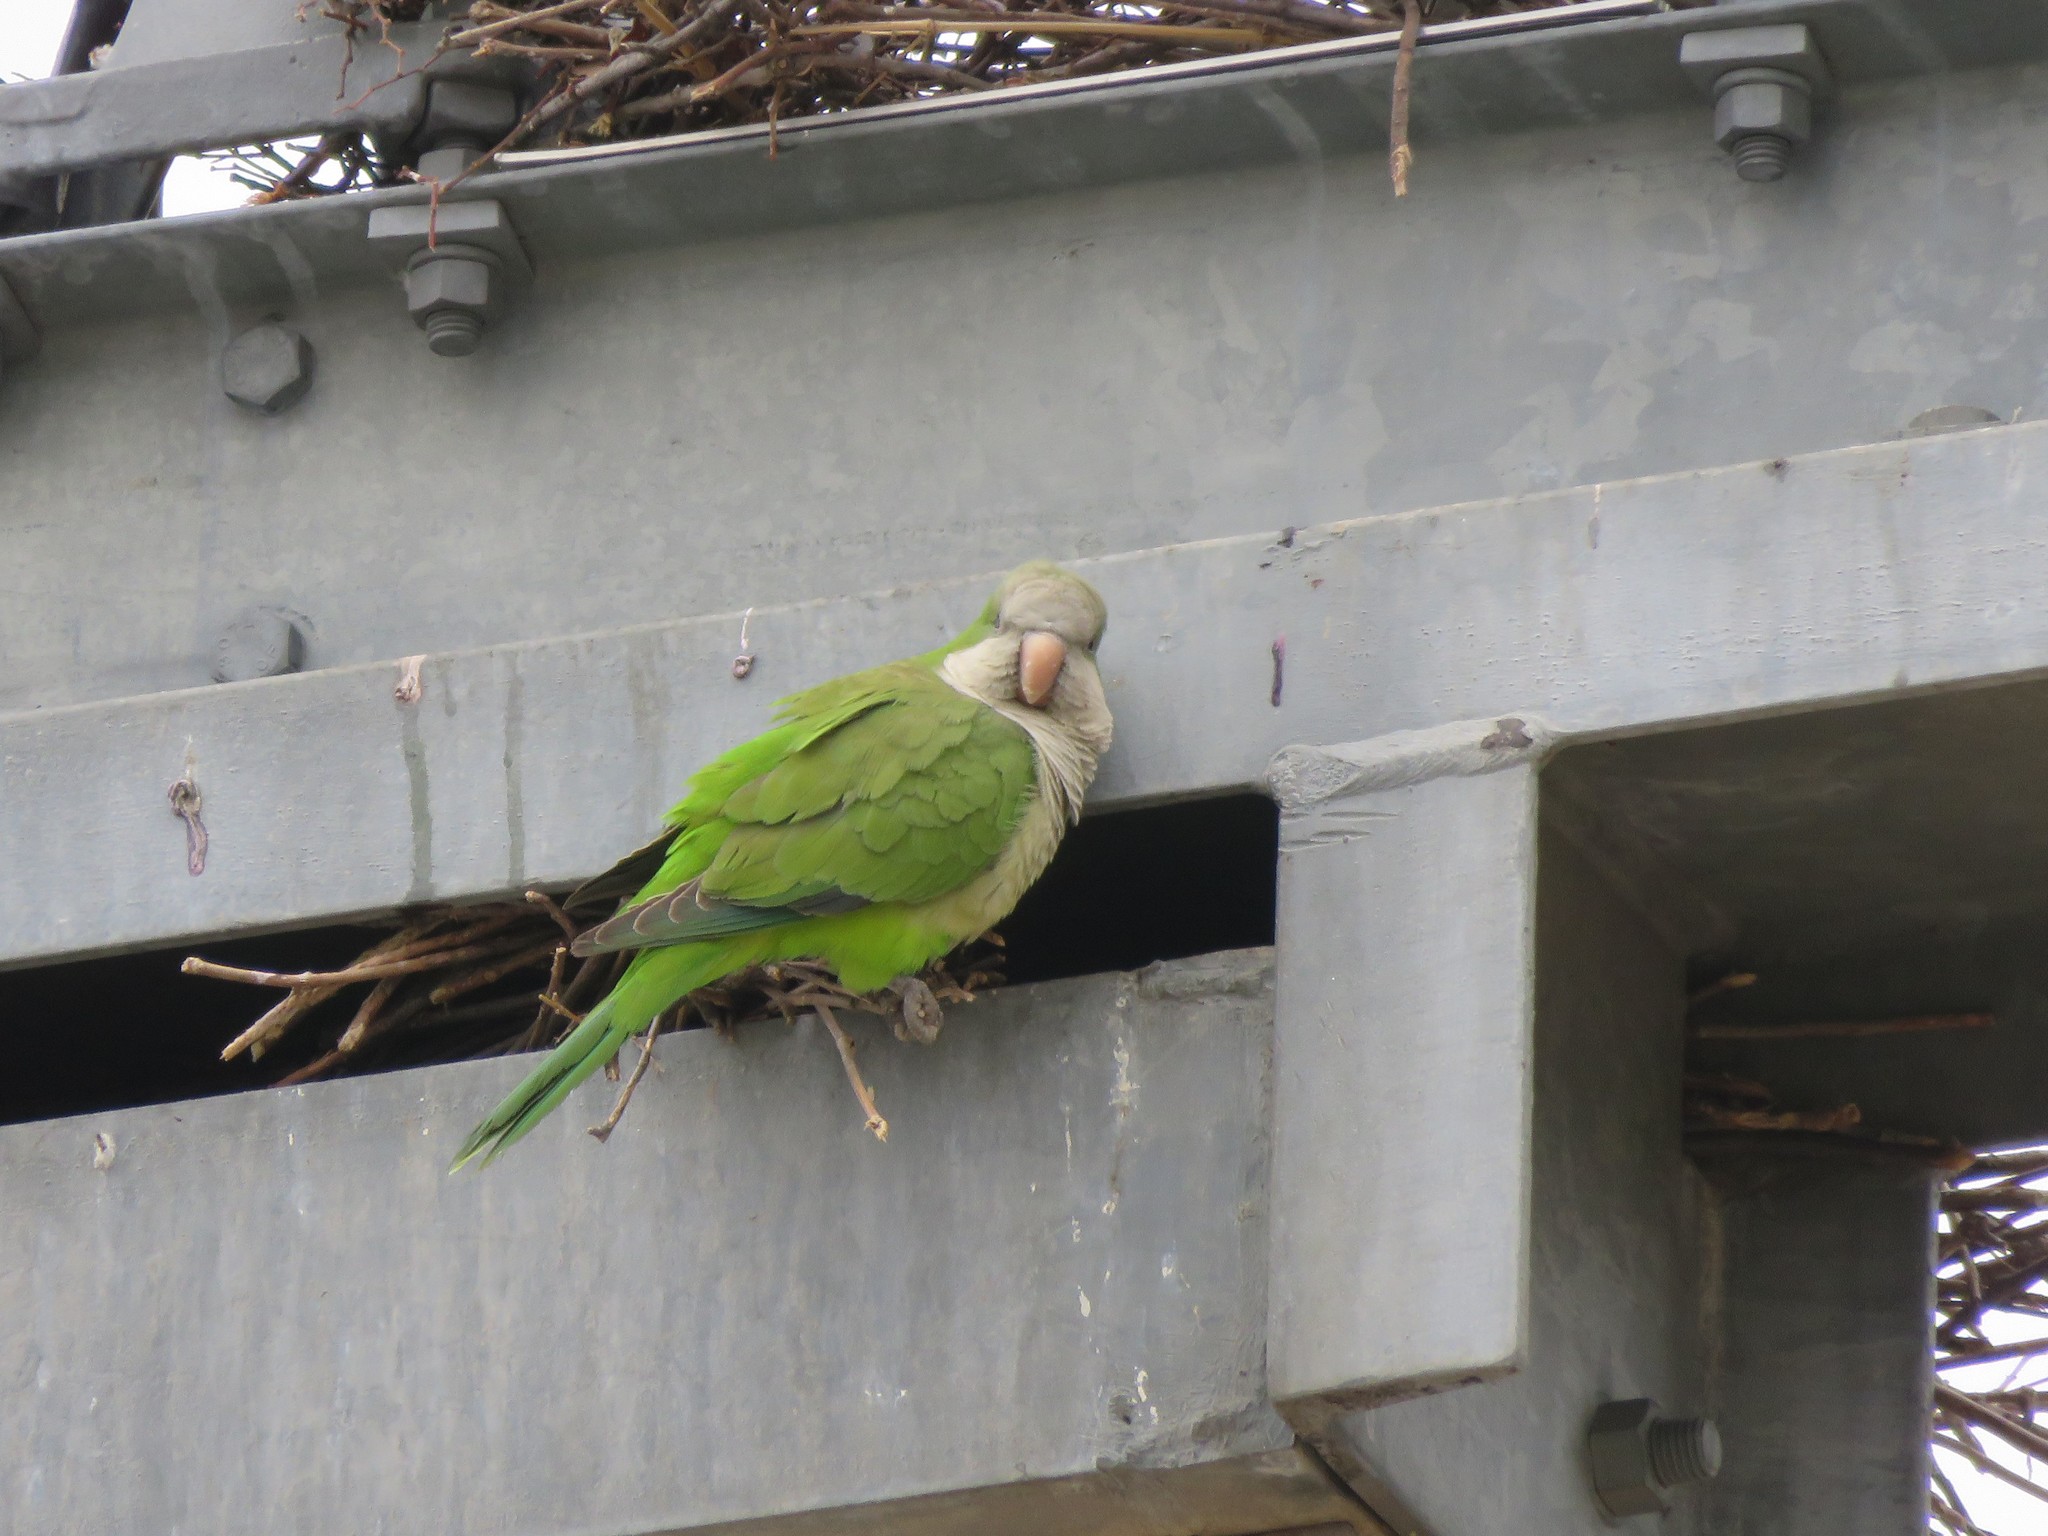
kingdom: Animalia
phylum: Chordata
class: Aves
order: Psittaciformes
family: Psittacidae
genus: Myiopsitta
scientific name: Myiopsitta monachus
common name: Monk parakeet
